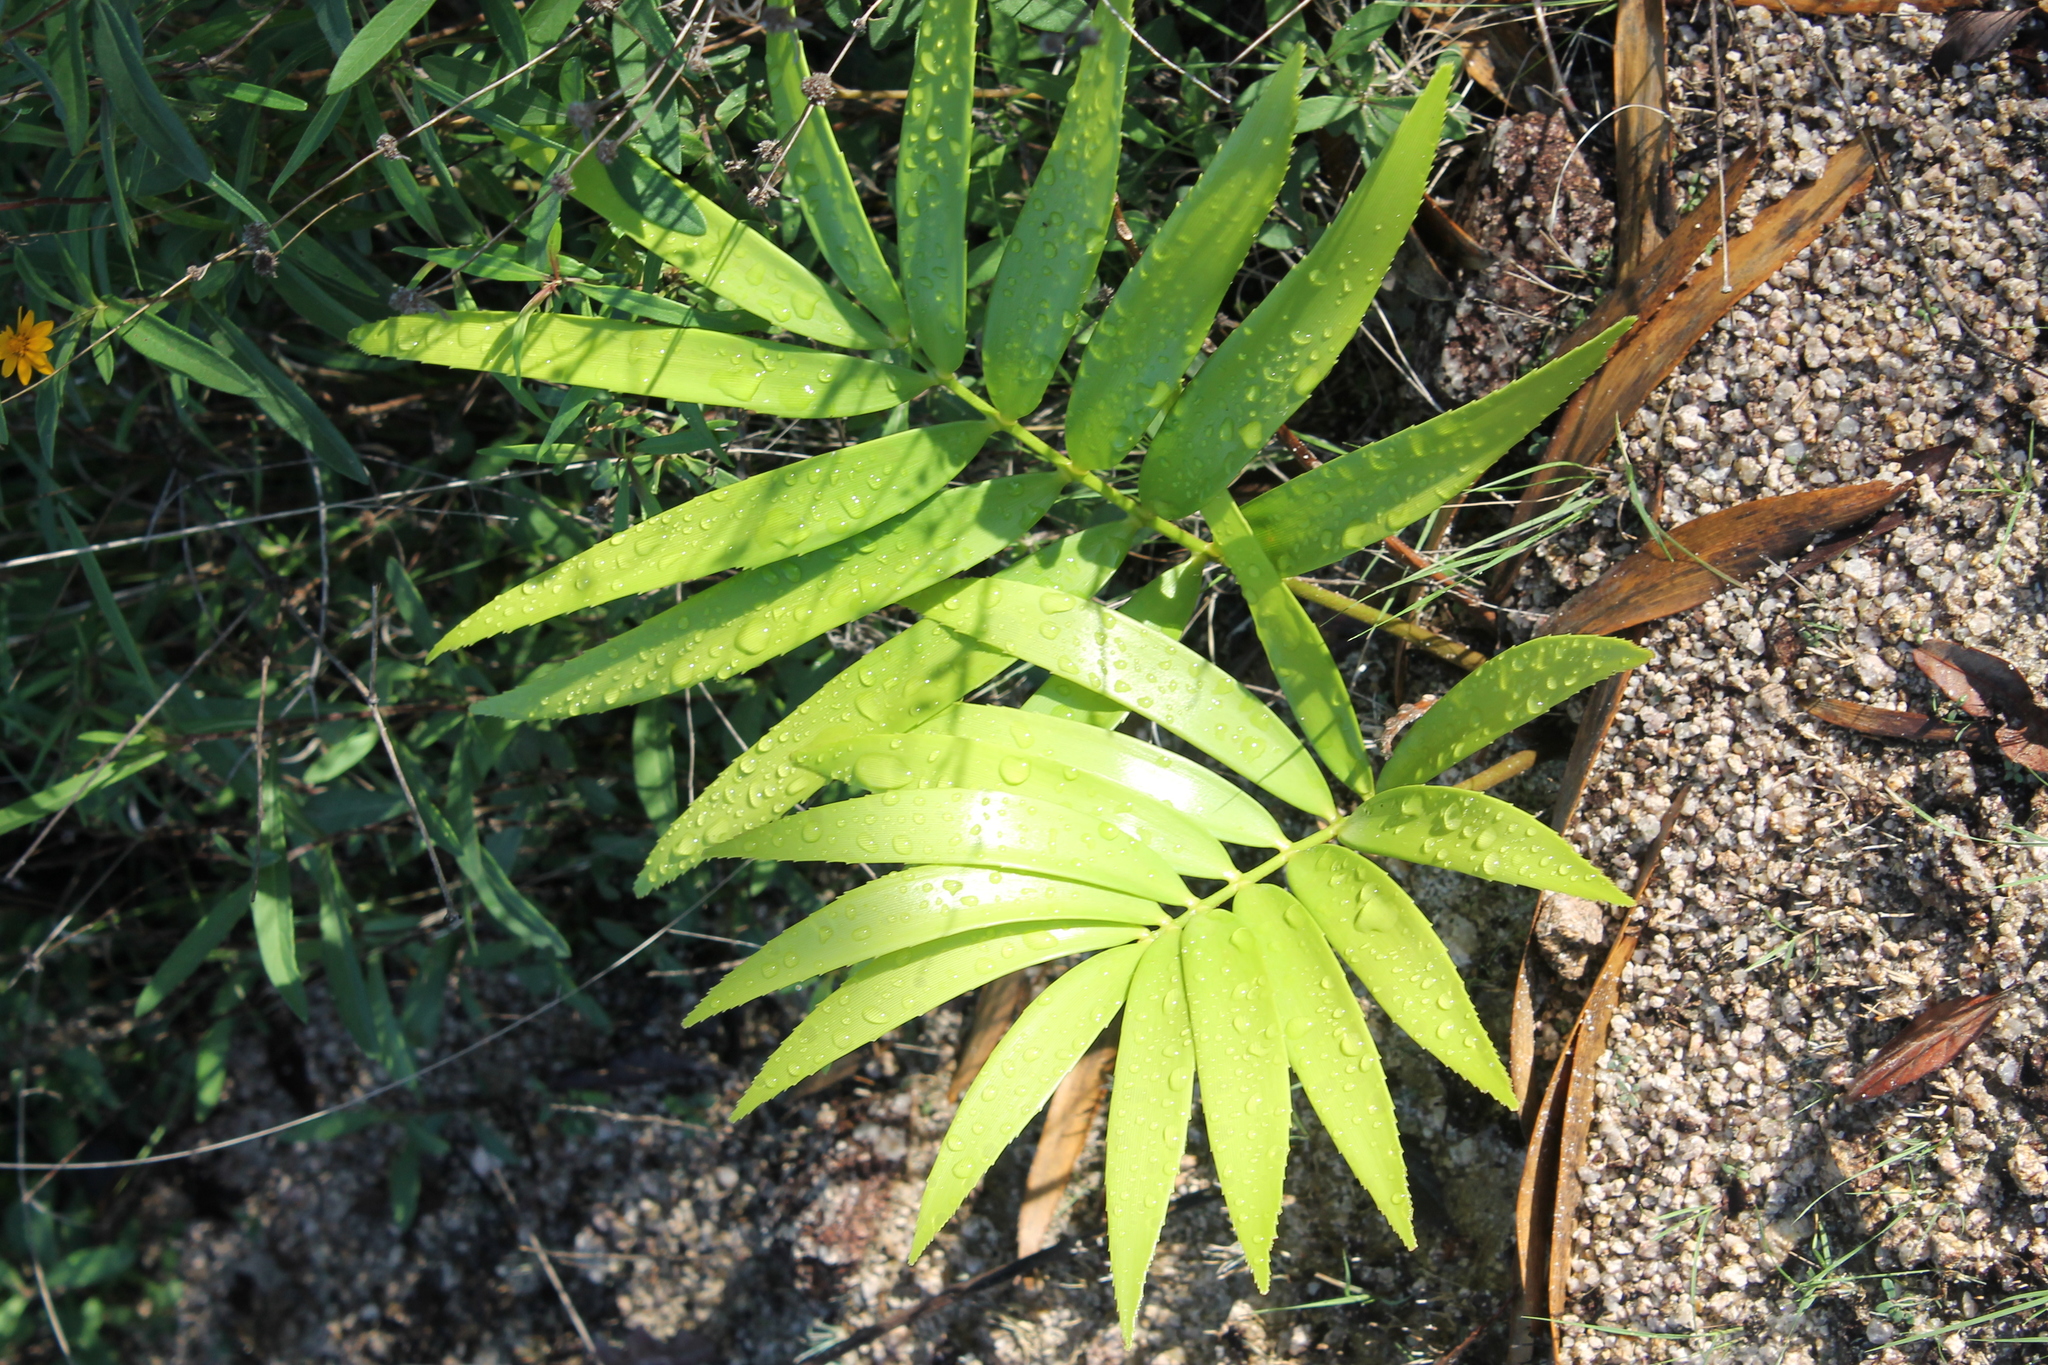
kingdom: Plantae
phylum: Tracheophyta
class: Cycadopsida
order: Cycadales
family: Zamiaceae
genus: Zamia
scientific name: Zamia paucijuga
